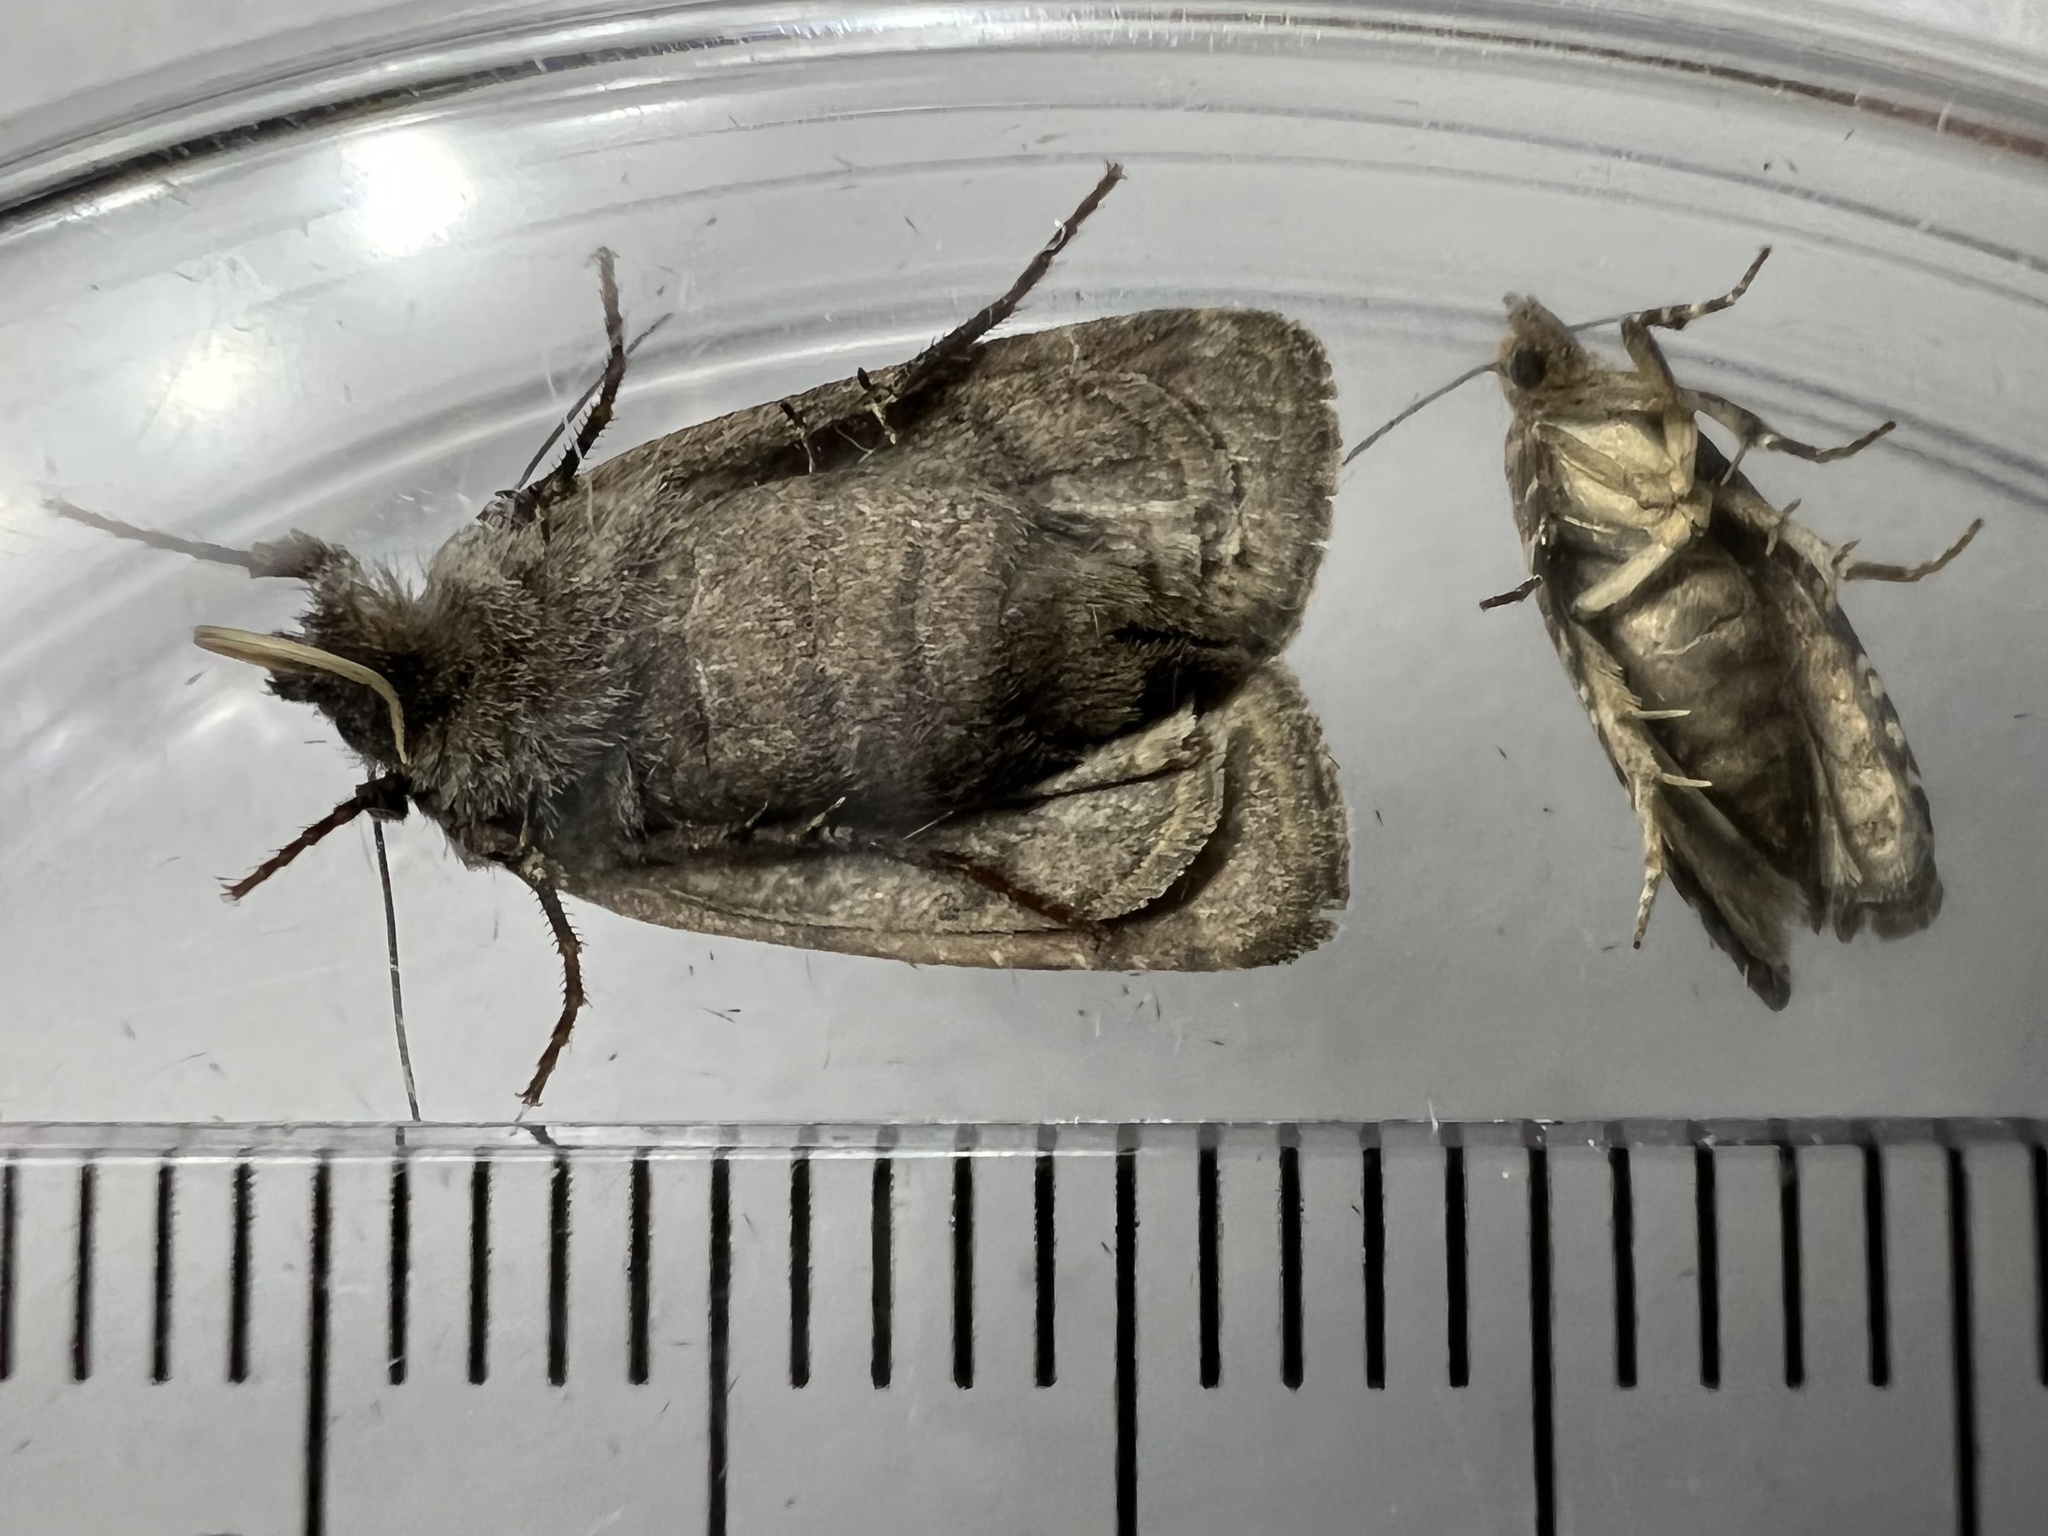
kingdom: Animalia
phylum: Arthropoda
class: Insecta
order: Lepidoptera
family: Noctuidae
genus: Lacinipolia
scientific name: Lacinipolia renigera
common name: Kidney-spotted minor
